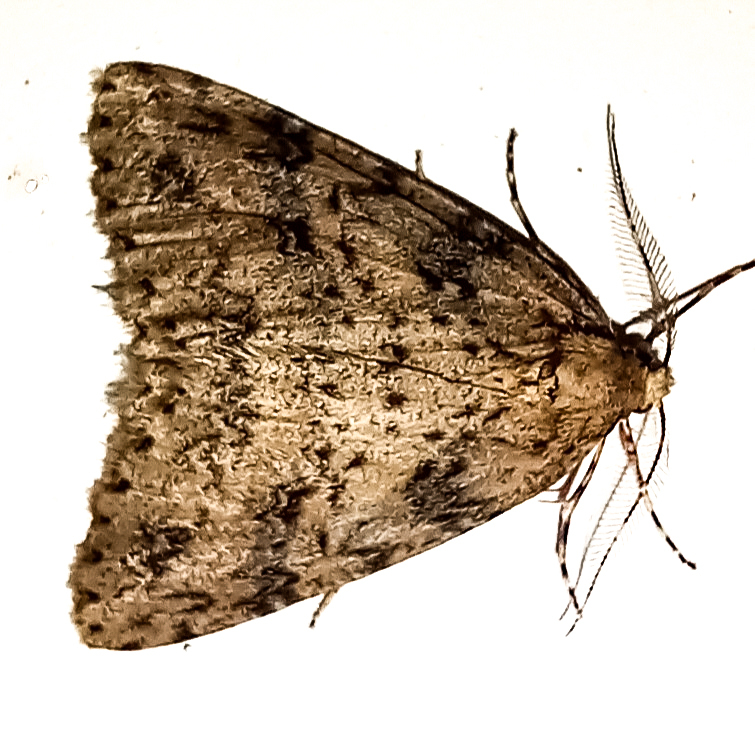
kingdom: Animalia
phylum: Arthropoda
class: Insecta
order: Lepidoptera
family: Geometridae
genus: Pseudocoremia
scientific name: Pseudocoremia rudisata
